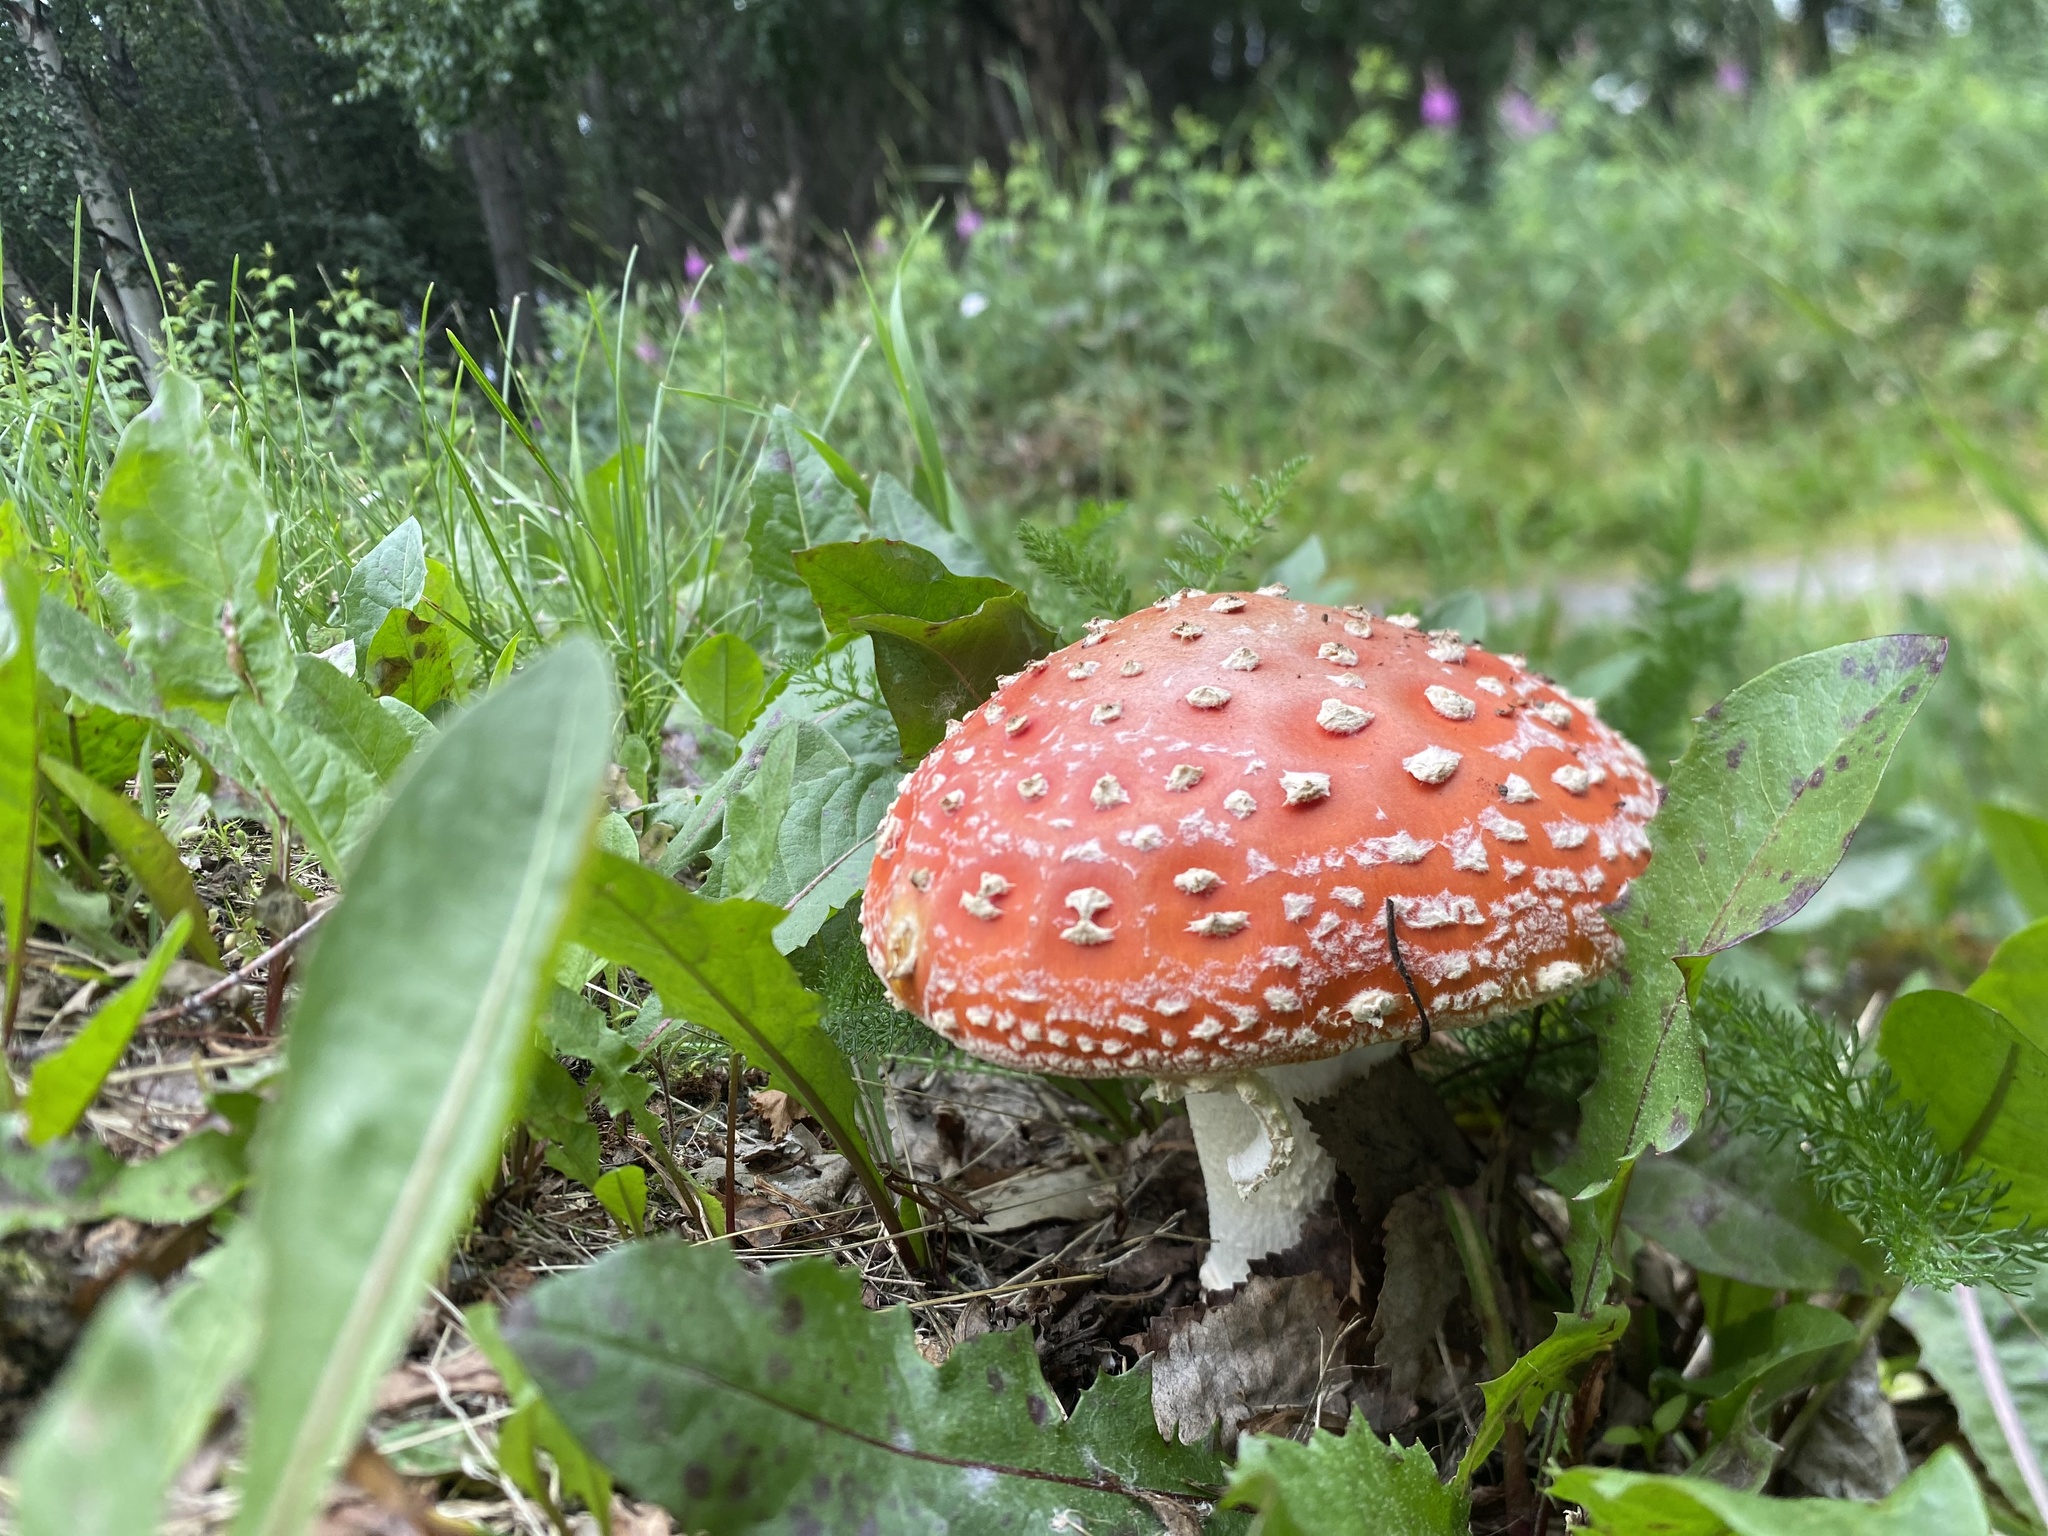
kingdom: Fungi
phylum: Basidiomycota
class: Agaricomycetes
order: Agaricales
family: Amanitaceae
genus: Amanita
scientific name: Amanita muscaria
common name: Fly agaric
